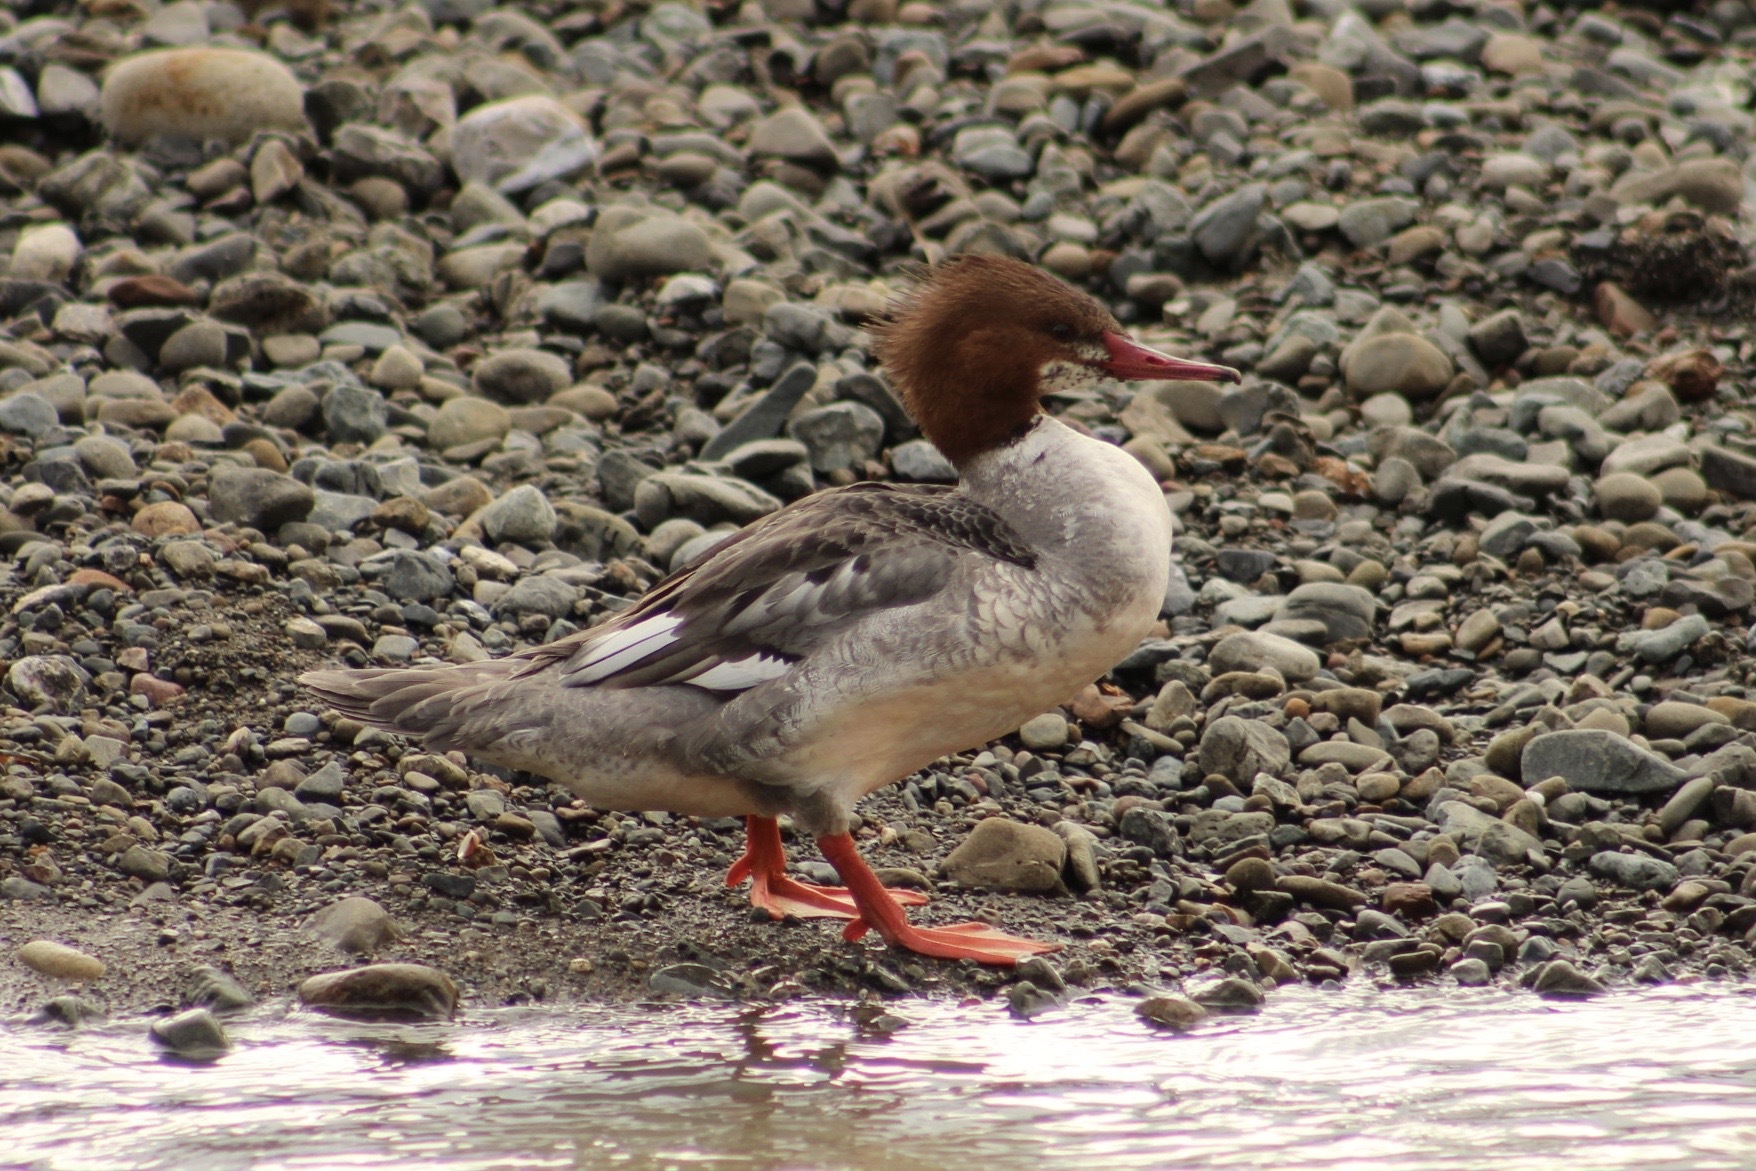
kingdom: Animalia
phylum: Chordata
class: Aves
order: Anseriformes
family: Anatidae
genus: Mergus
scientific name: Mergus merganser
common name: Common merganser
